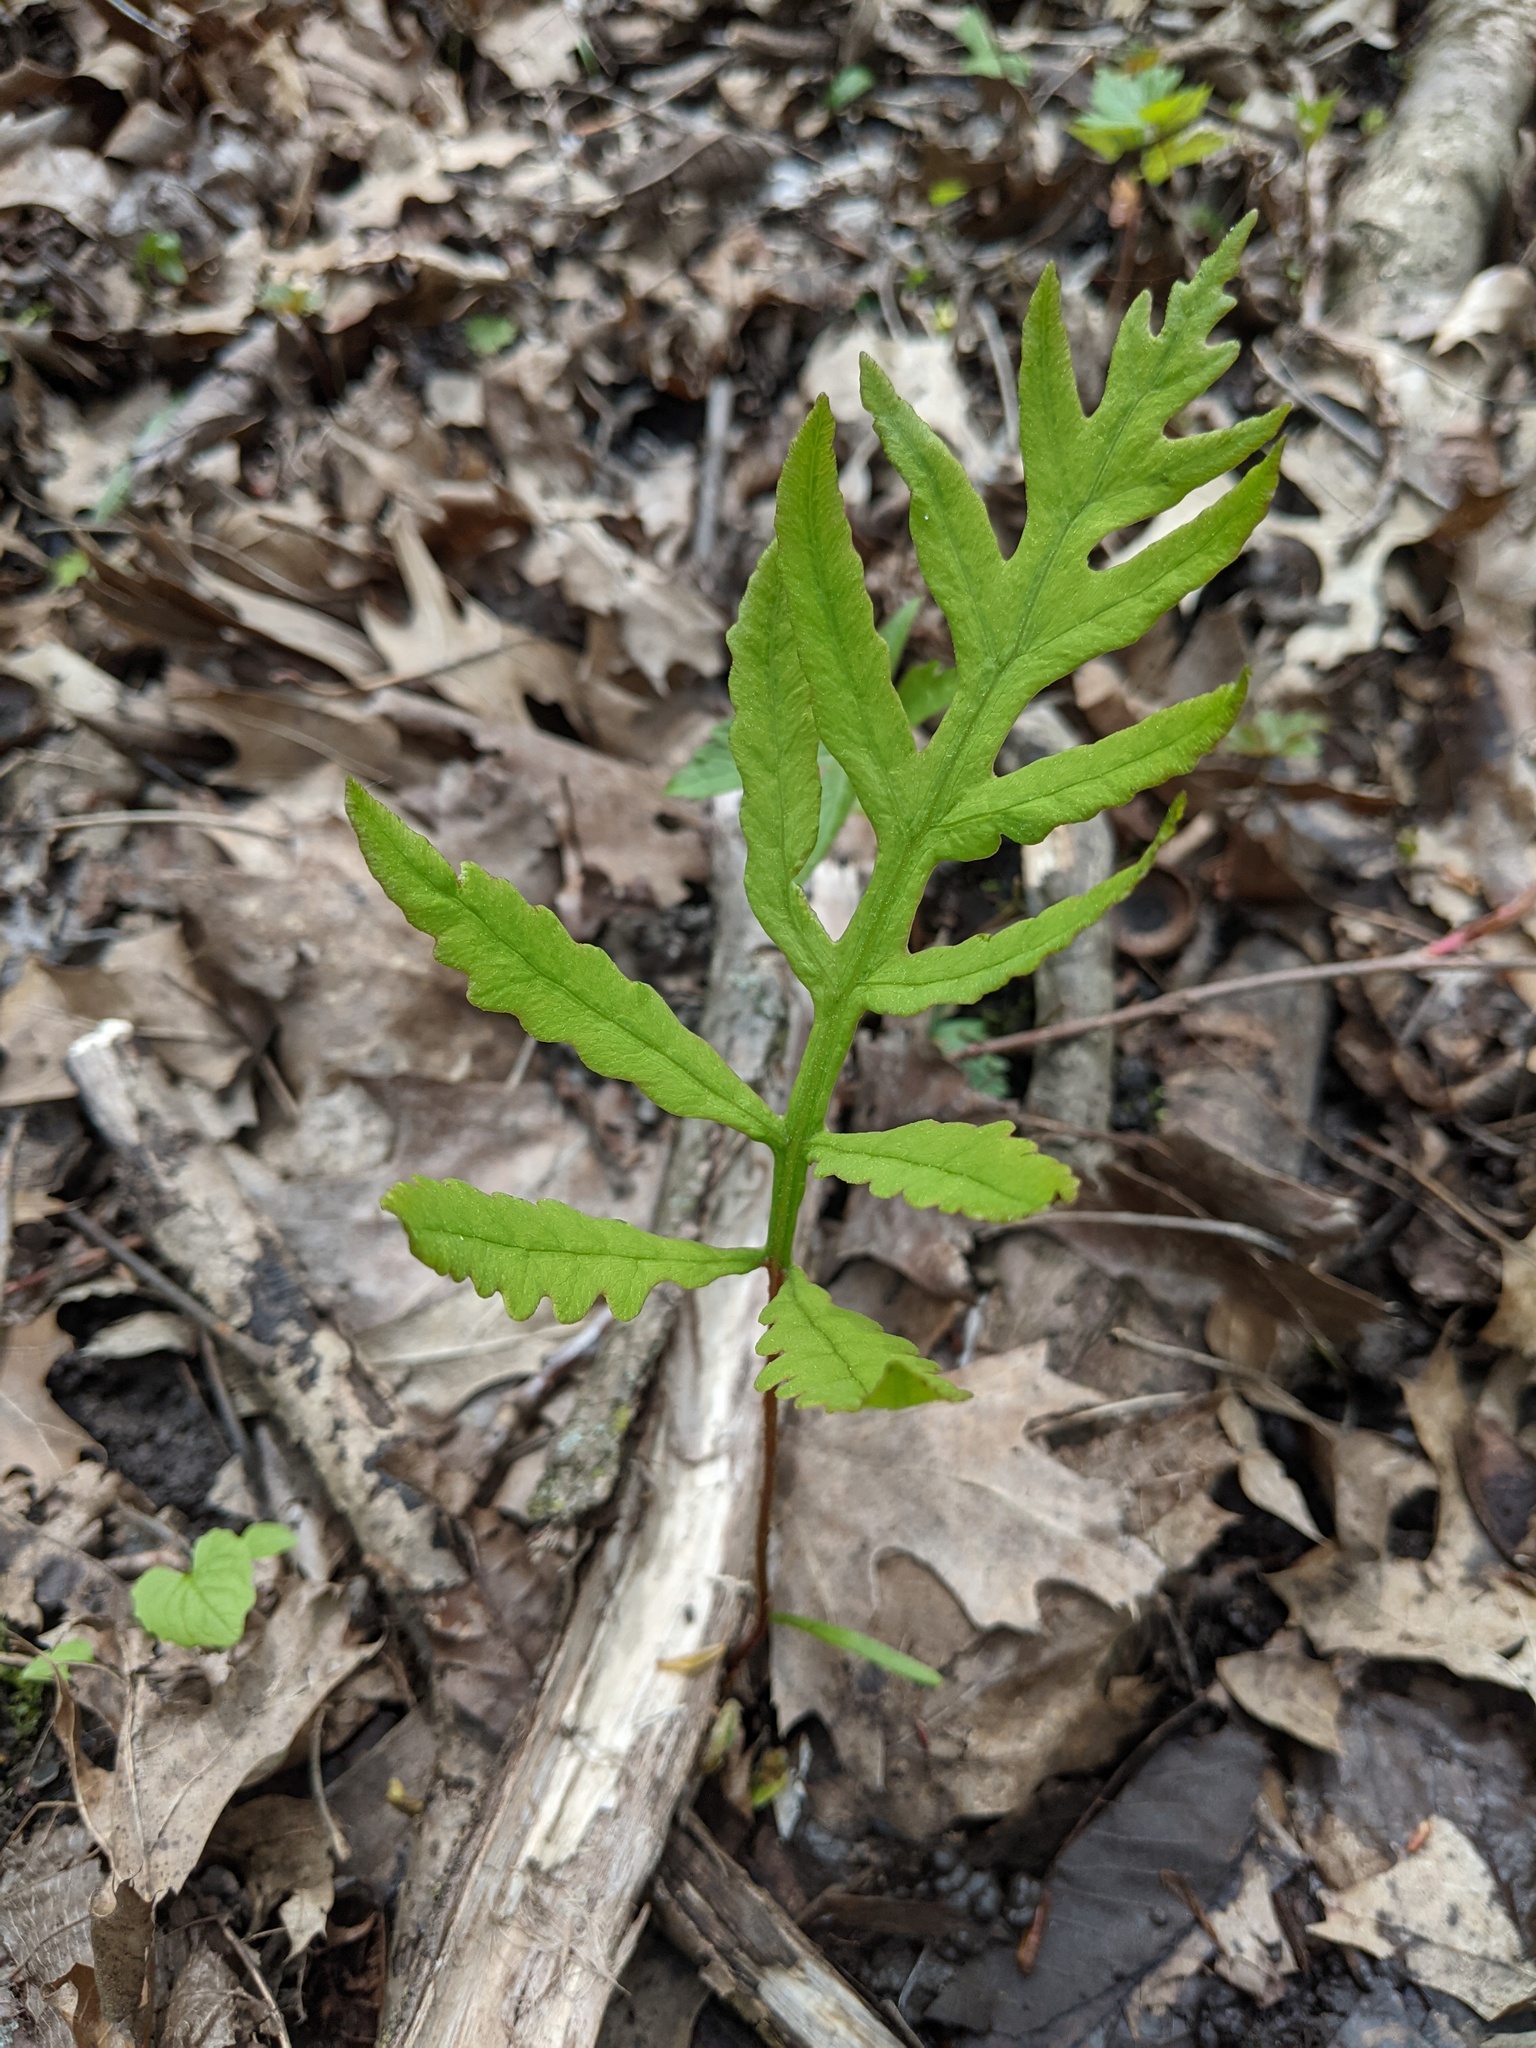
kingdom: Plantae
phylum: Tracheophyta
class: Polypodiopsida
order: Polypodiales
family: Onocleaceae
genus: Onoclea
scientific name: Onoclea sensibilis
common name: Sensitive fern
